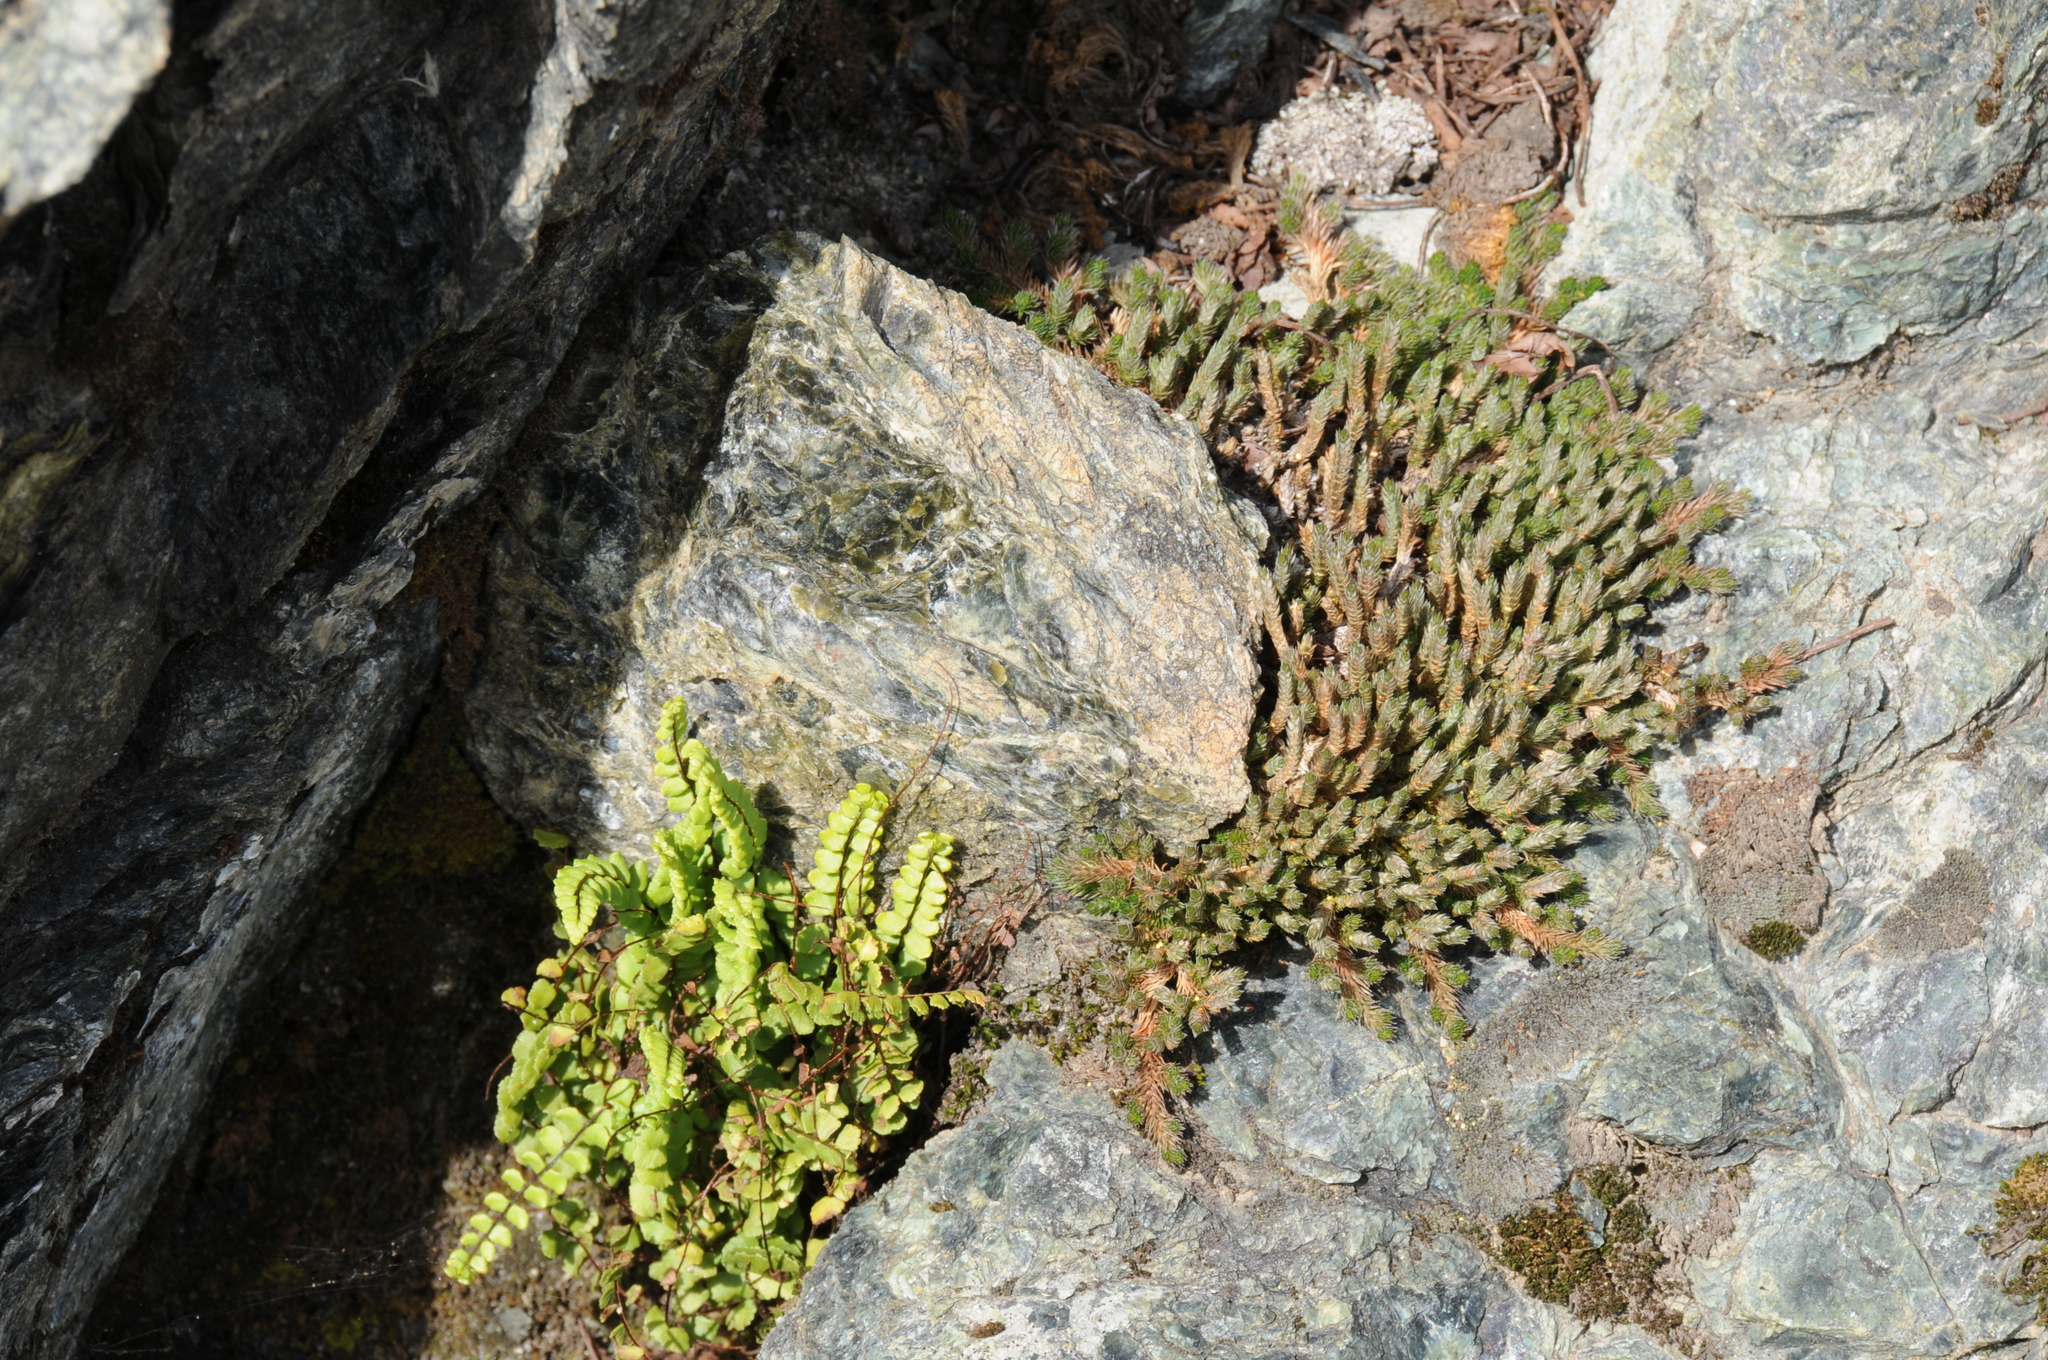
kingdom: Plantae
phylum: Tracheophyta
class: Polypodiopsida
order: Polypodiales
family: Aspleniaceae
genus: Asplenium
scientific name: Asplenium trichomanes
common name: Maidenhair spleenwort
